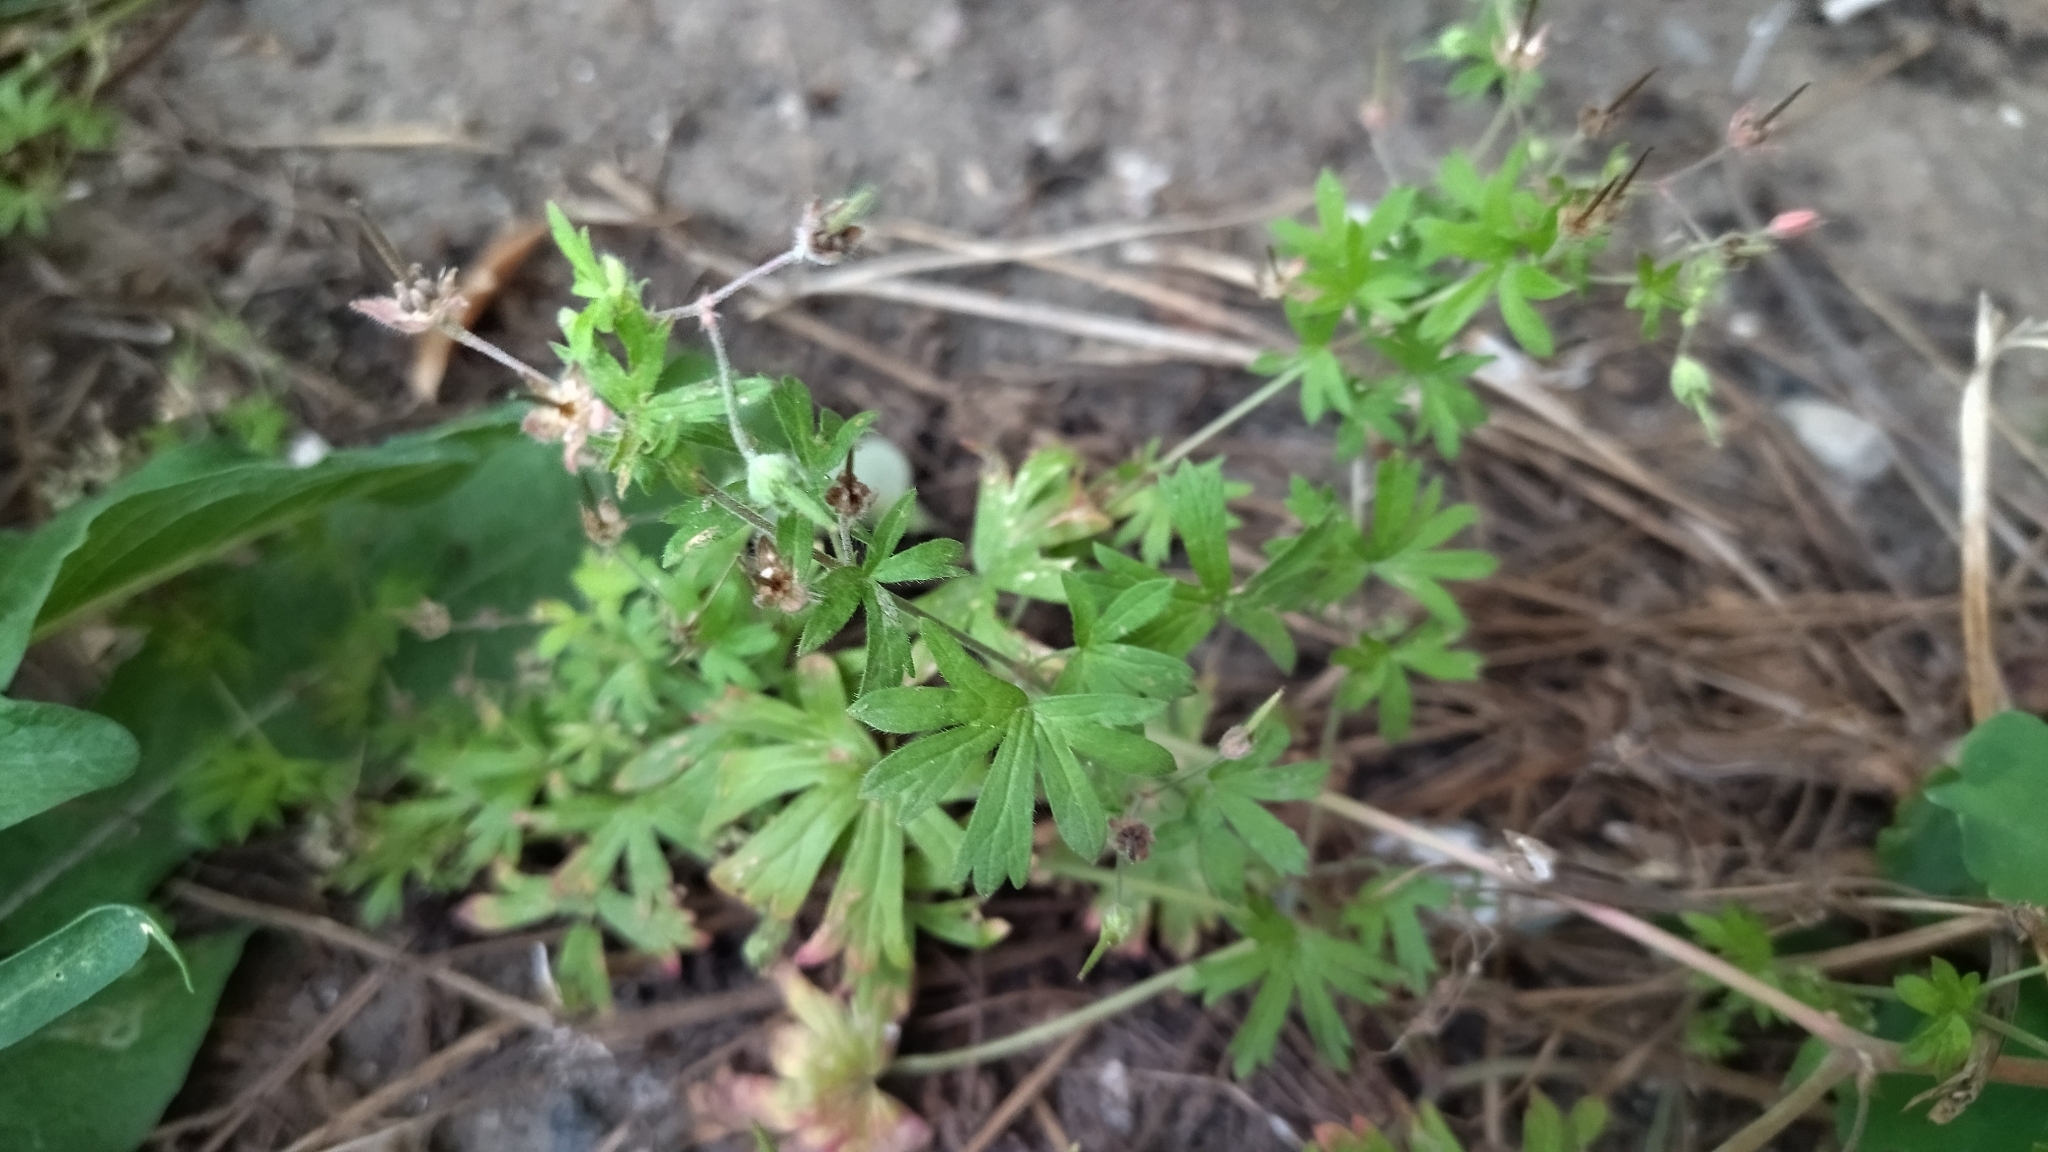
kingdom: Plantae
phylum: Tracheophyta
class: Magnoliopsida
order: Geraniales
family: Geraniaceae
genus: Geranium
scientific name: Geranium pusillum
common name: Small geranium
